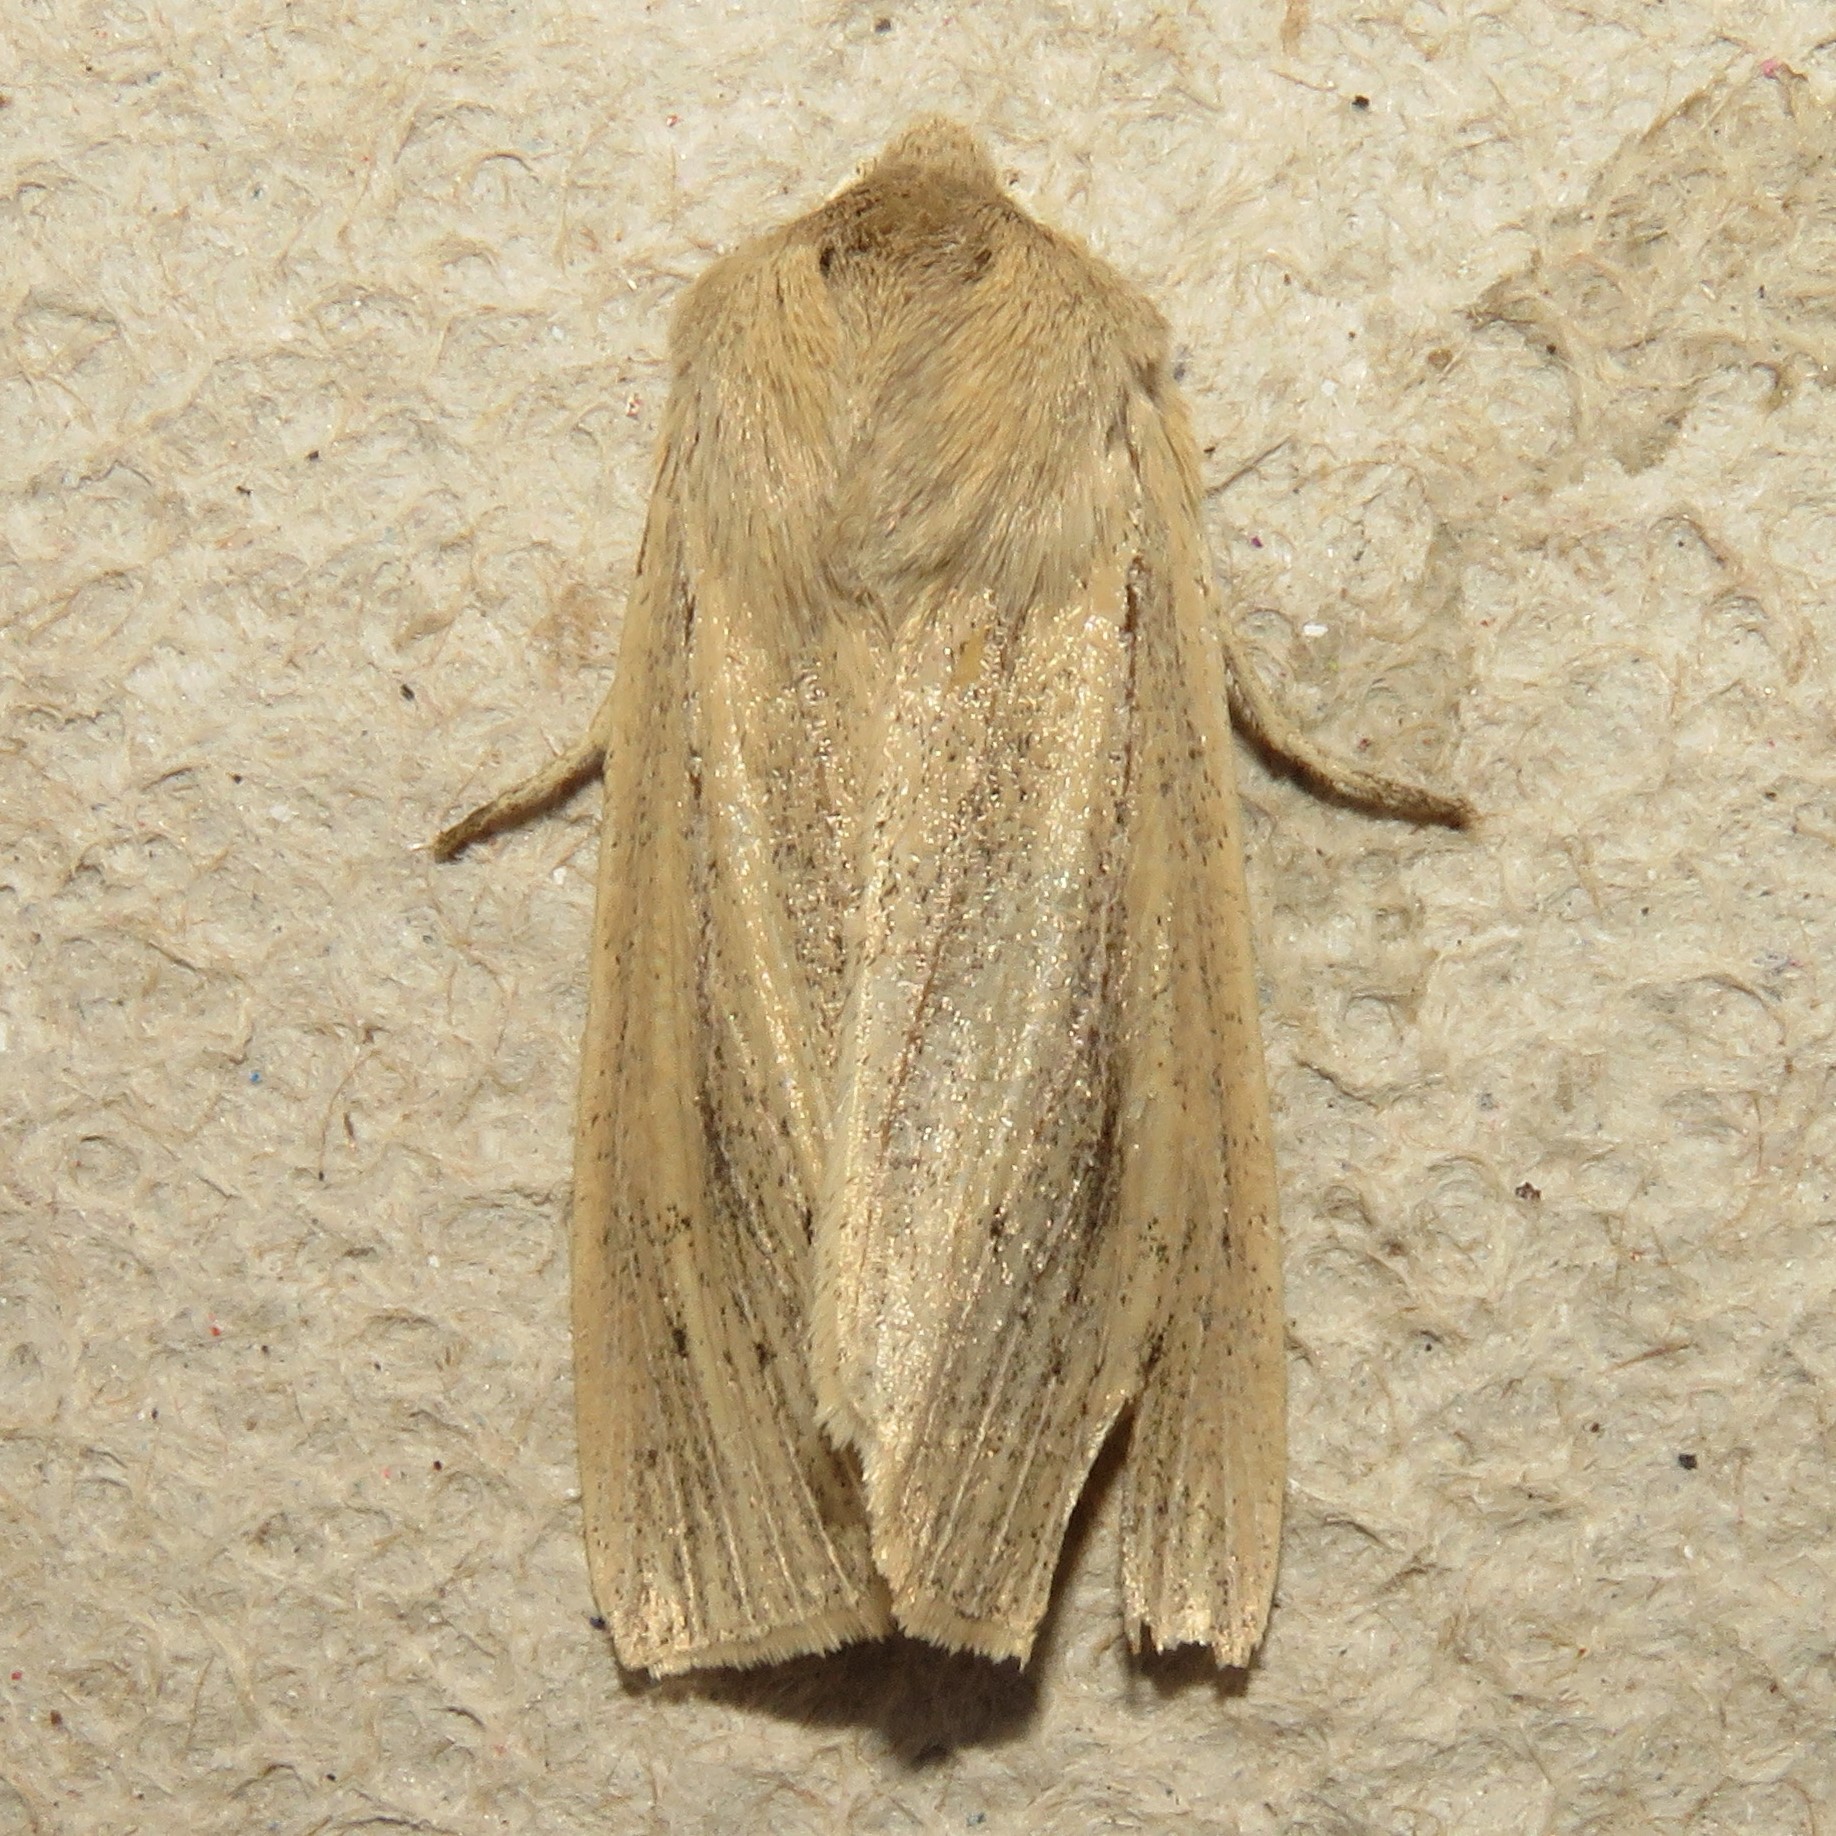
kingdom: Animalia
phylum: Arthropoda
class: Insecta
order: Lepidoptera
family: Noctuidae
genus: Rhizedra
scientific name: Rhizedra lutosa
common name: Large wainscot
